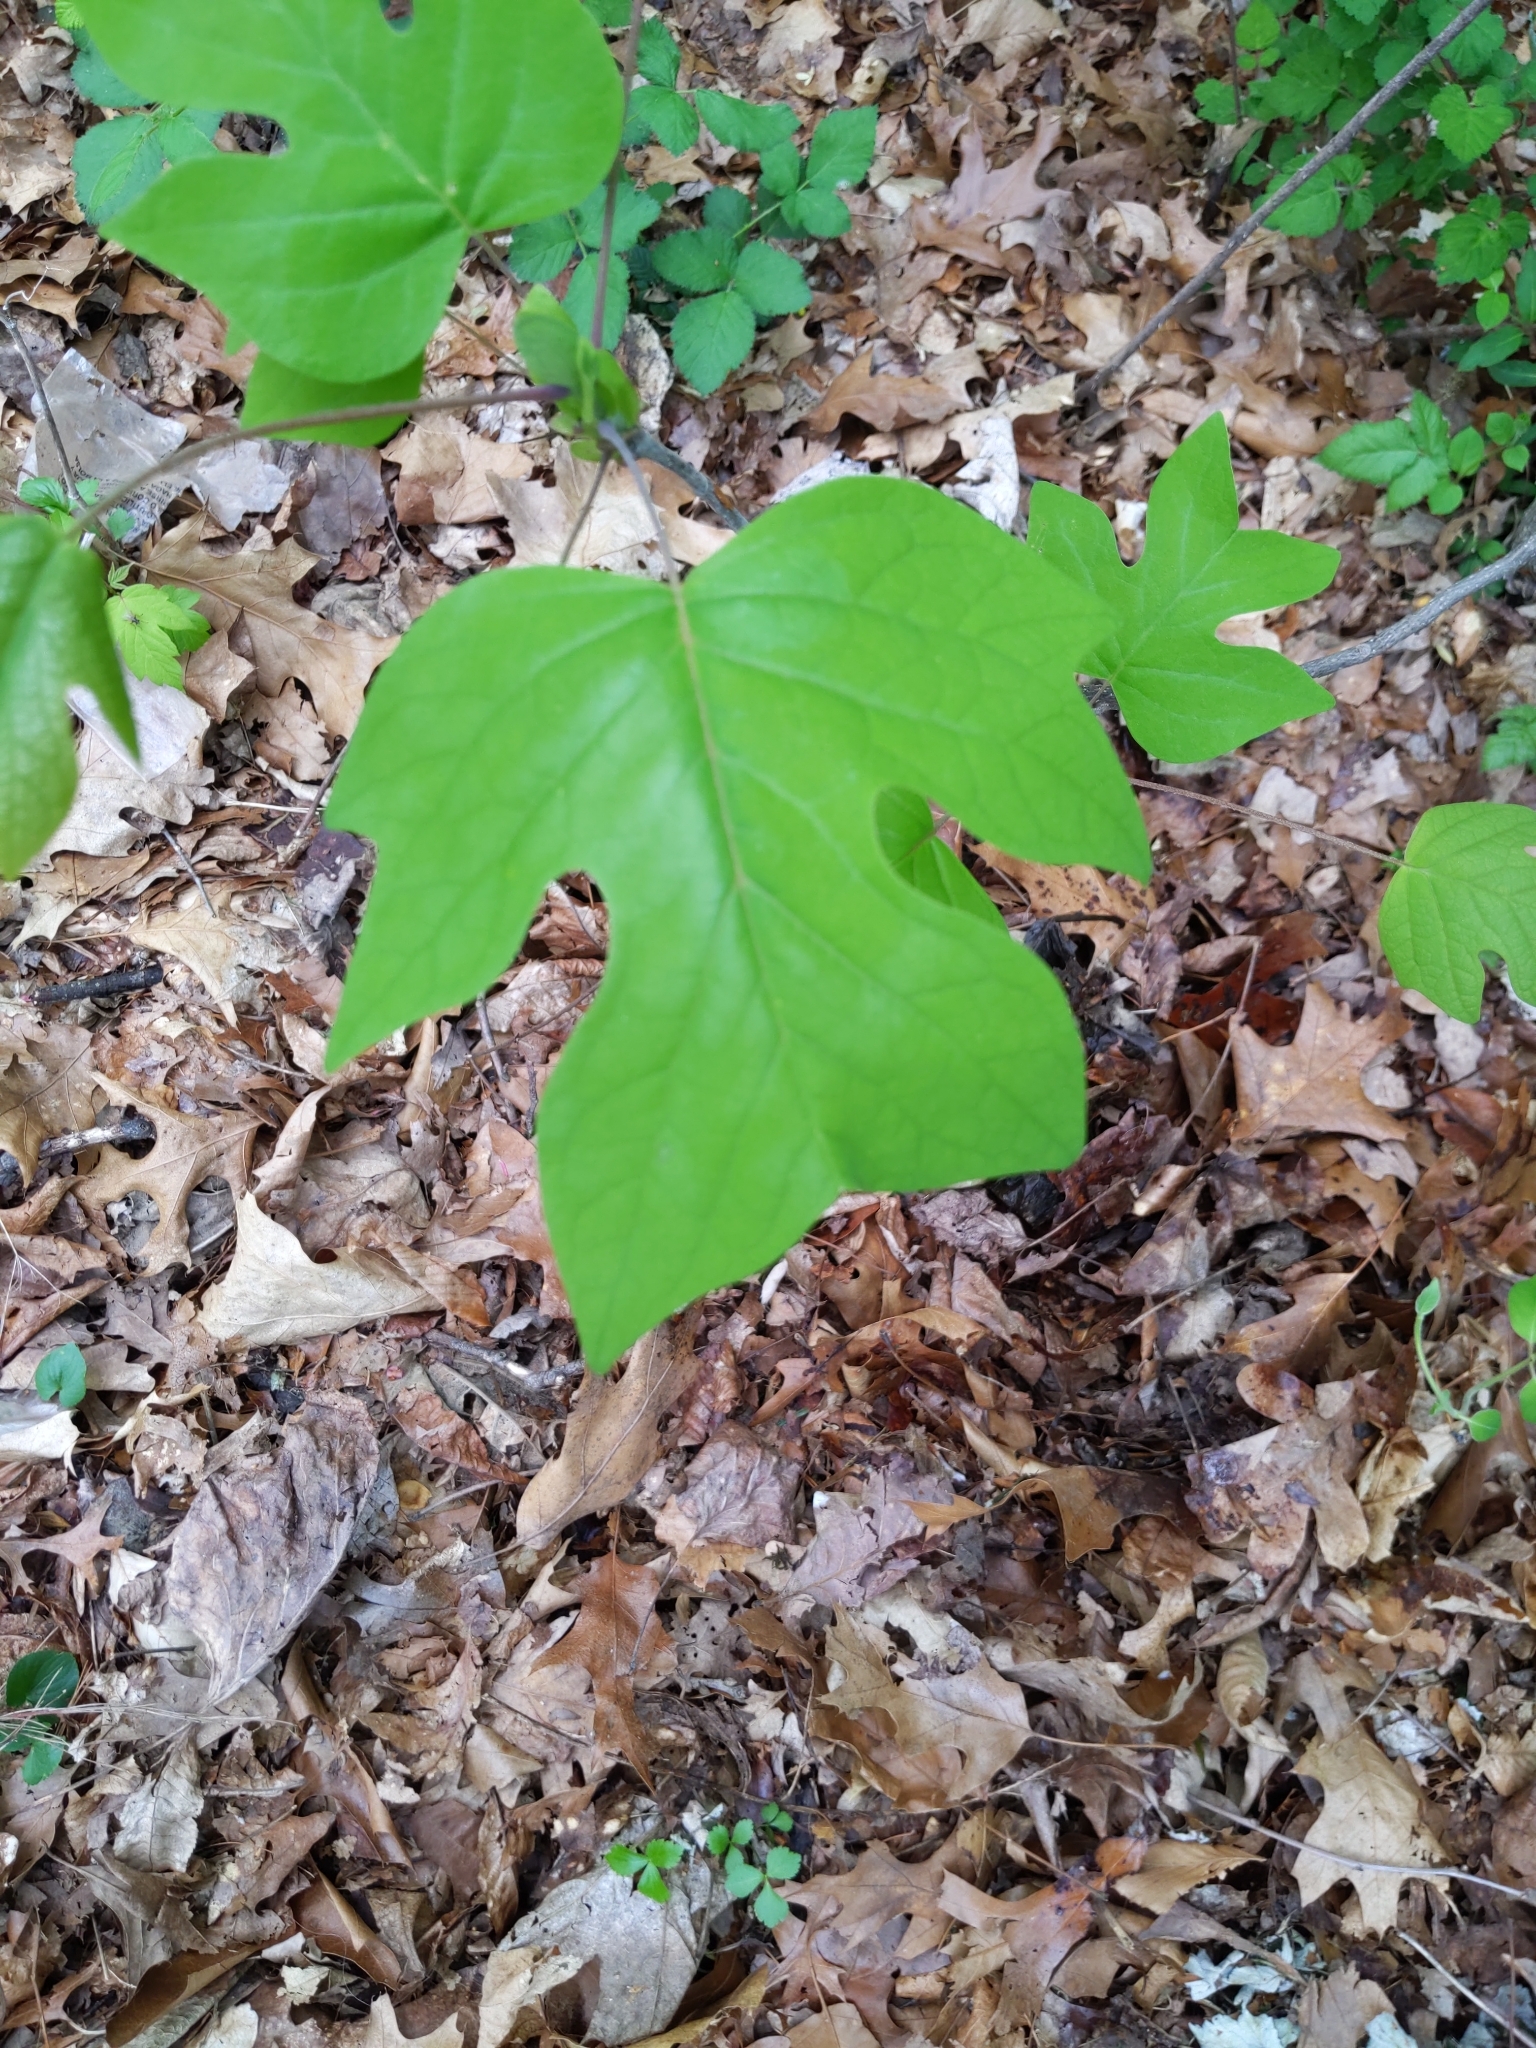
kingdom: Plantae
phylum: Tracheophyta
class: Magnoliopsida
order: Magnoliales
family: Magnoliaceae
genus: Liriodendron
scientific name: Liriodendron tulipifera
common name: Tulip tree
